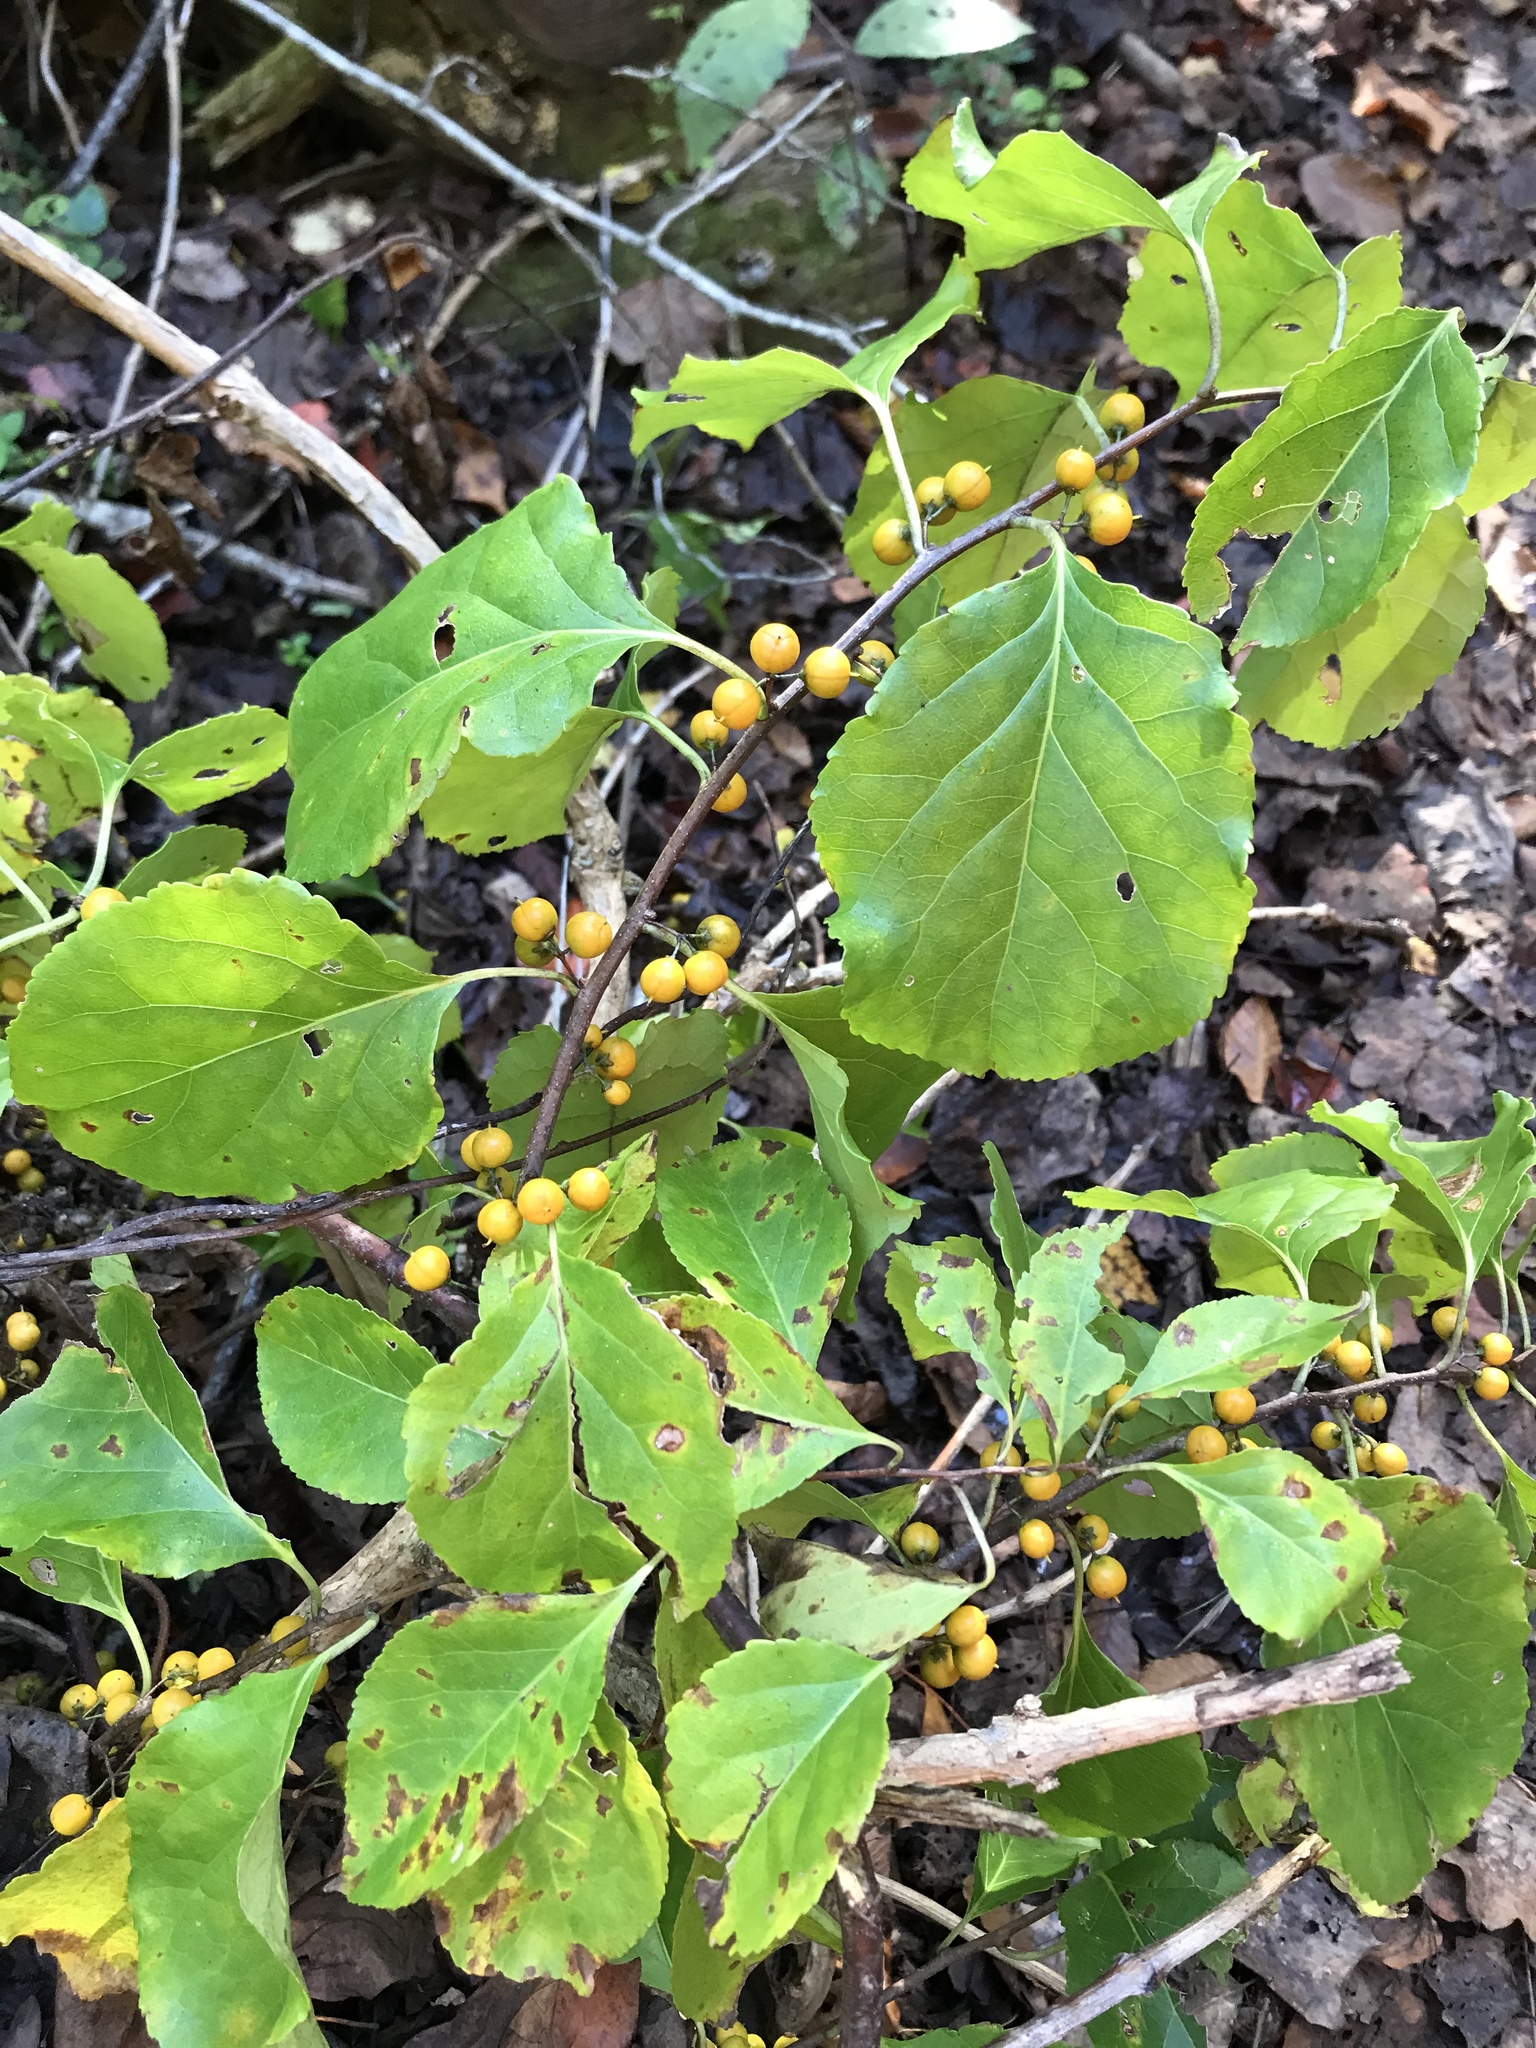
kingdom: Plantae
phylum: Tracheophyta
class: Magnoliopsida
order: Celastrales
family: Celastraceae
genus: Celastrus
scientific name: Celastrus orbiculatus
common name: Oriental bittersweet
